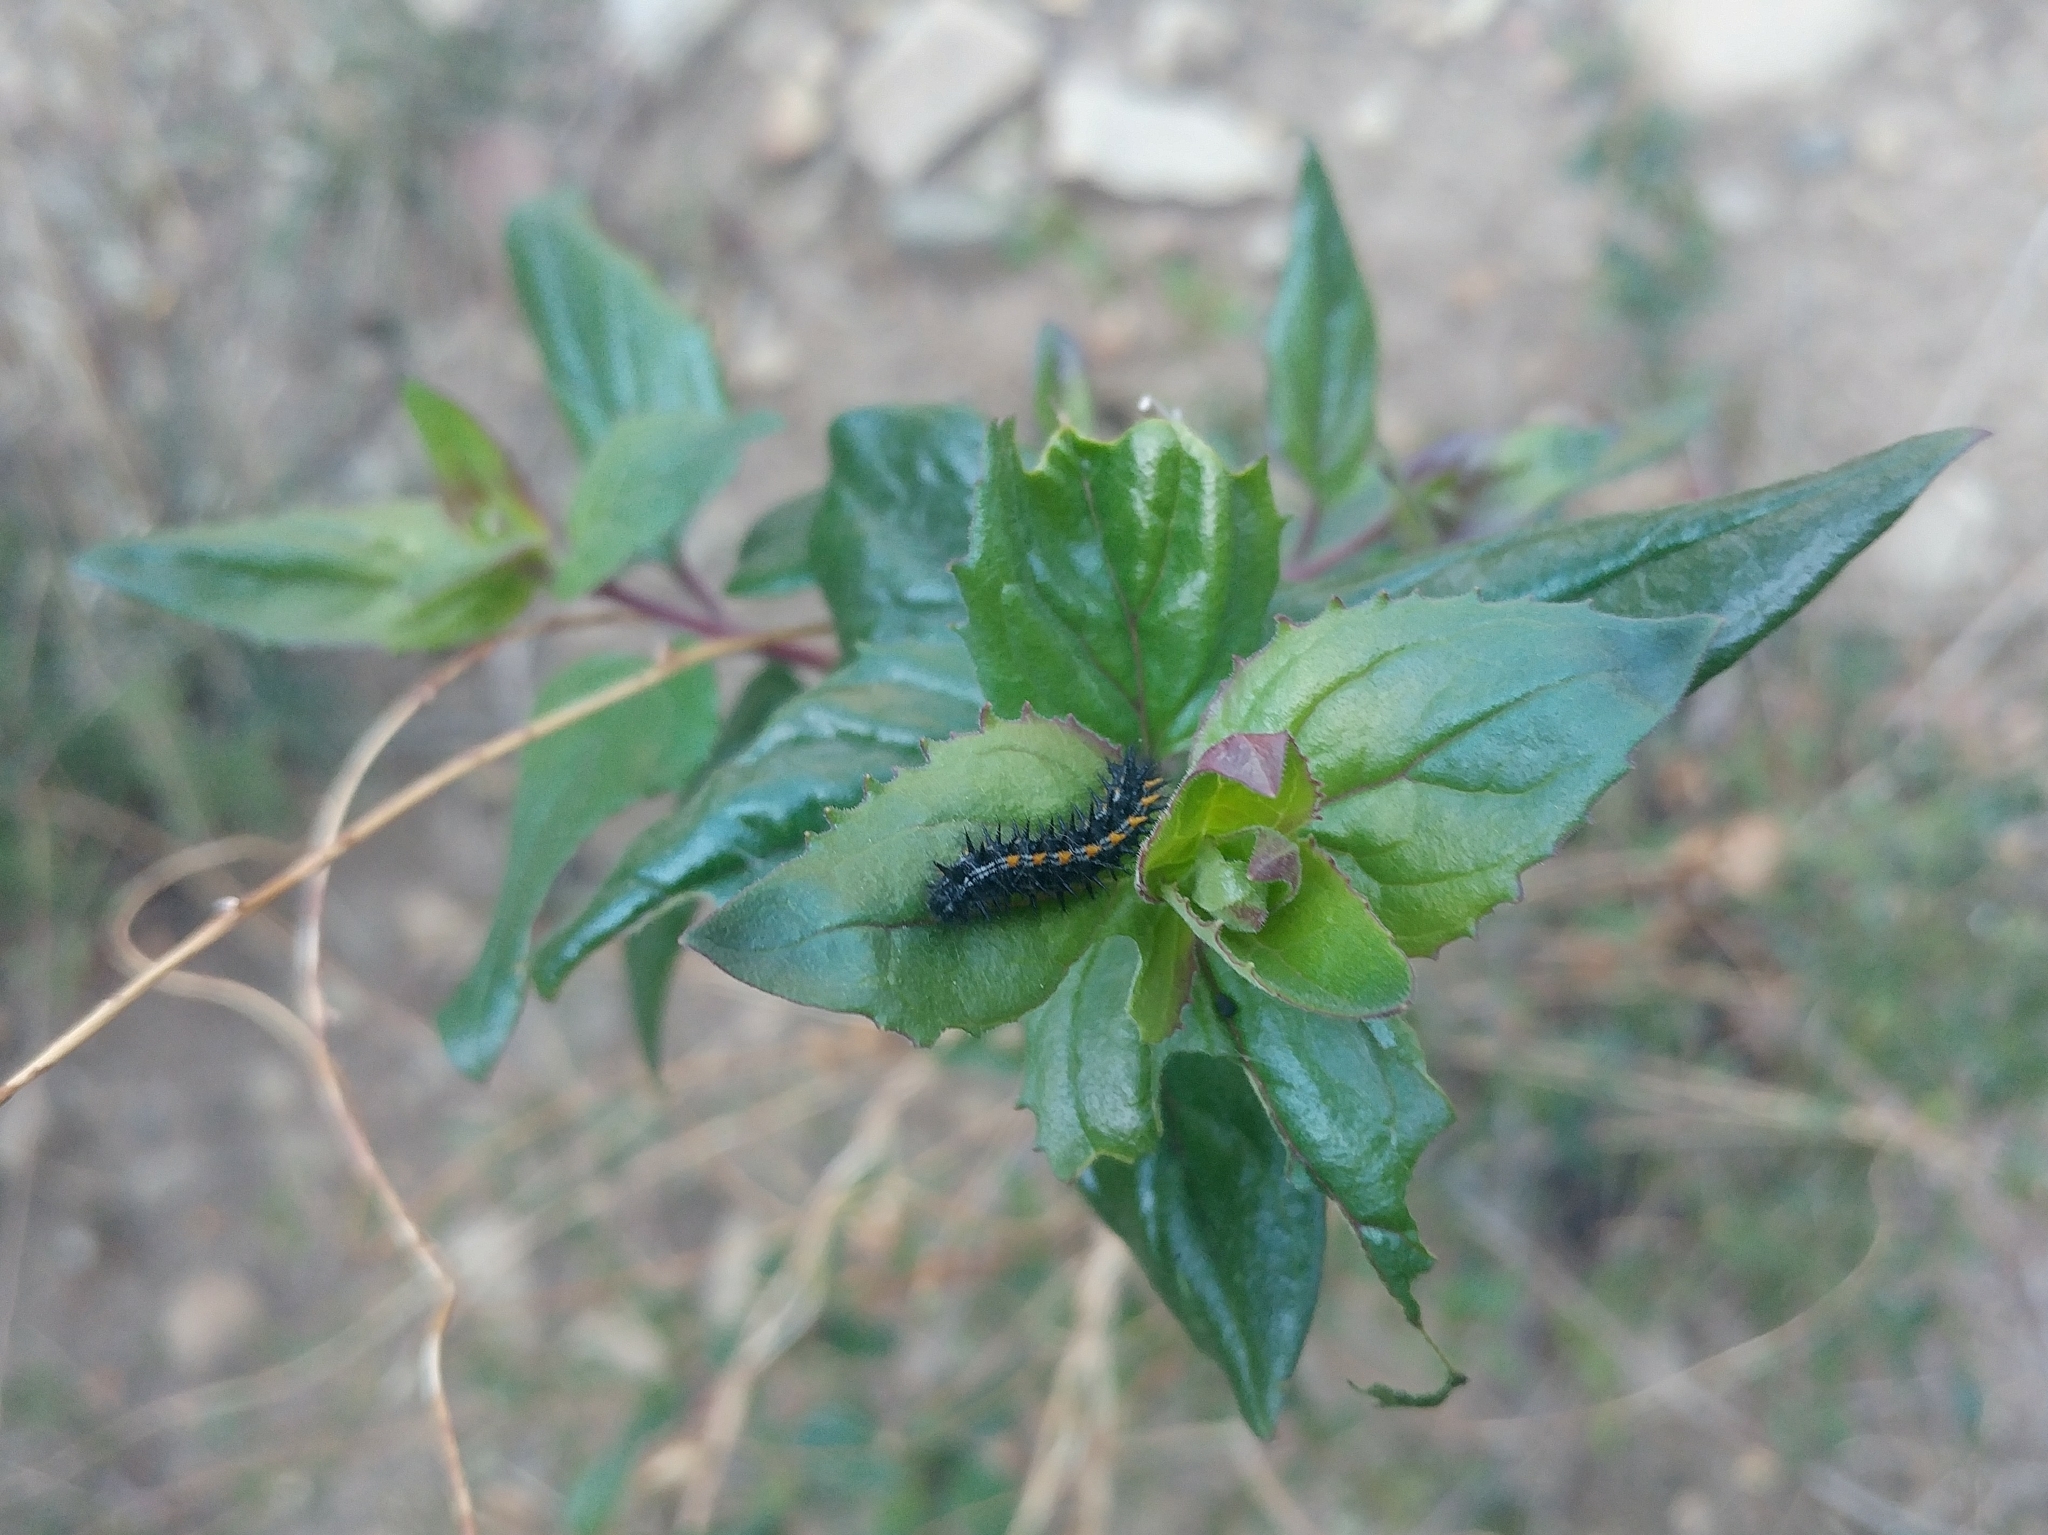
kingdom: Animalia
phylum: Arthropoda
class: Insecta
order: Lepidoptera
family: Nymphalidae
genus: Occidryas
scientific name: Occidryas chalcedona
